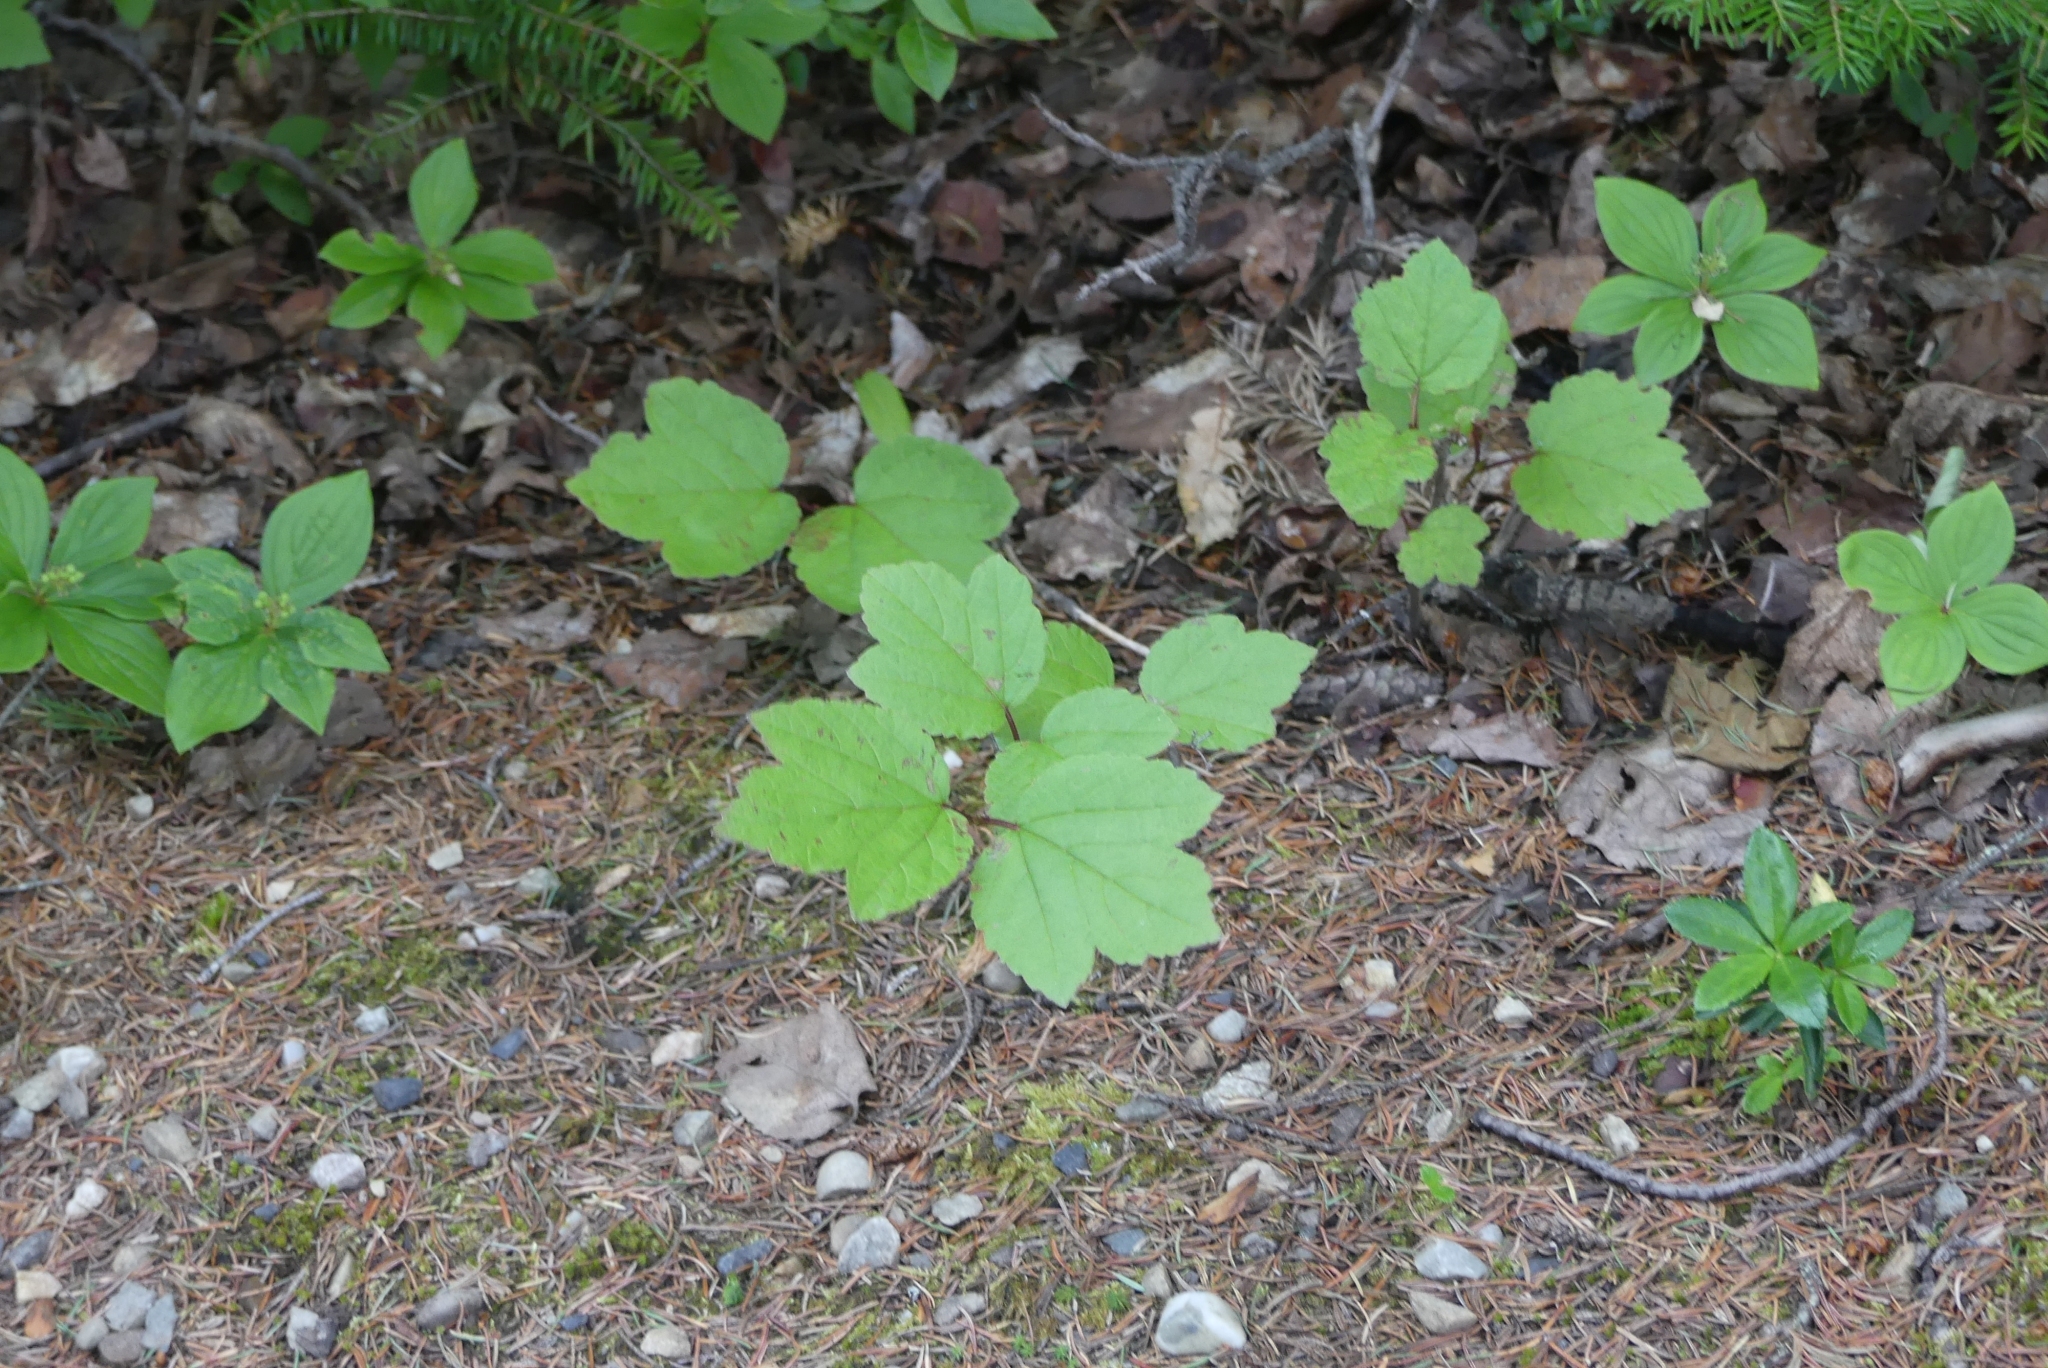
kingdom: Plantae
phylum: Tracheophyta
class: Magnoliopsida
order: Dipsacales
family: Viburnaceae
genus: Viburnum
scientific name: Viburnum edule
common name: Mooseberry
